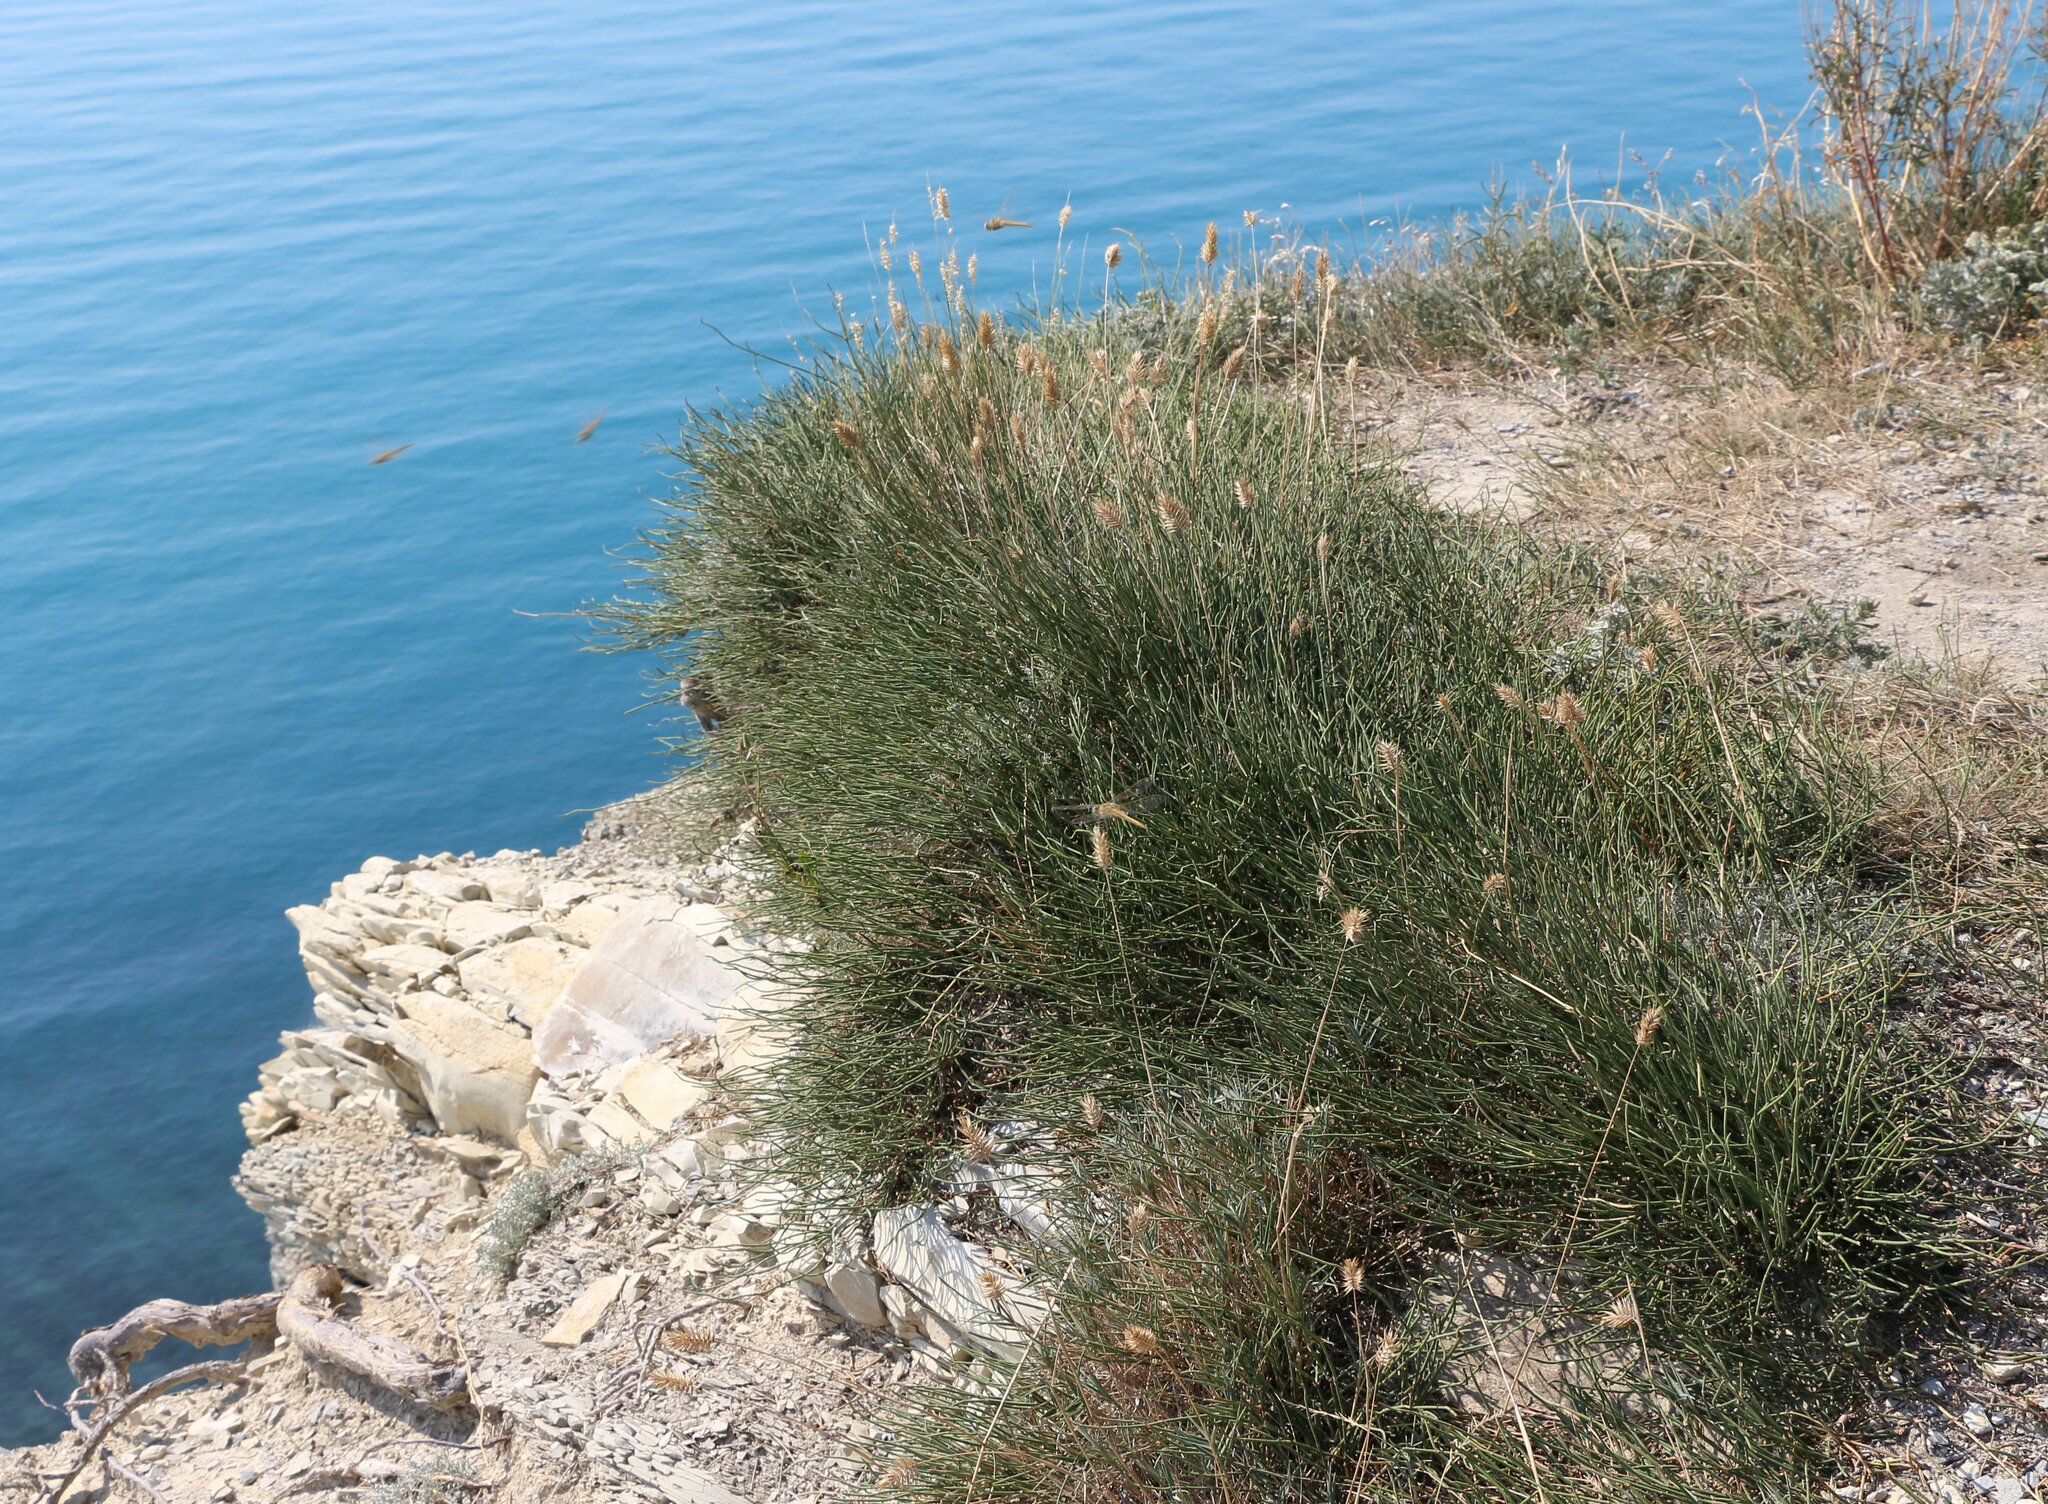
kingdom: Plantae
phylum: Tracheophyta
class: Gnetopsida
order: Ephedrales
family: Ephedraceae
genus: Ephedra
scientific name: Ephedra distachya
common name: Sea grape
